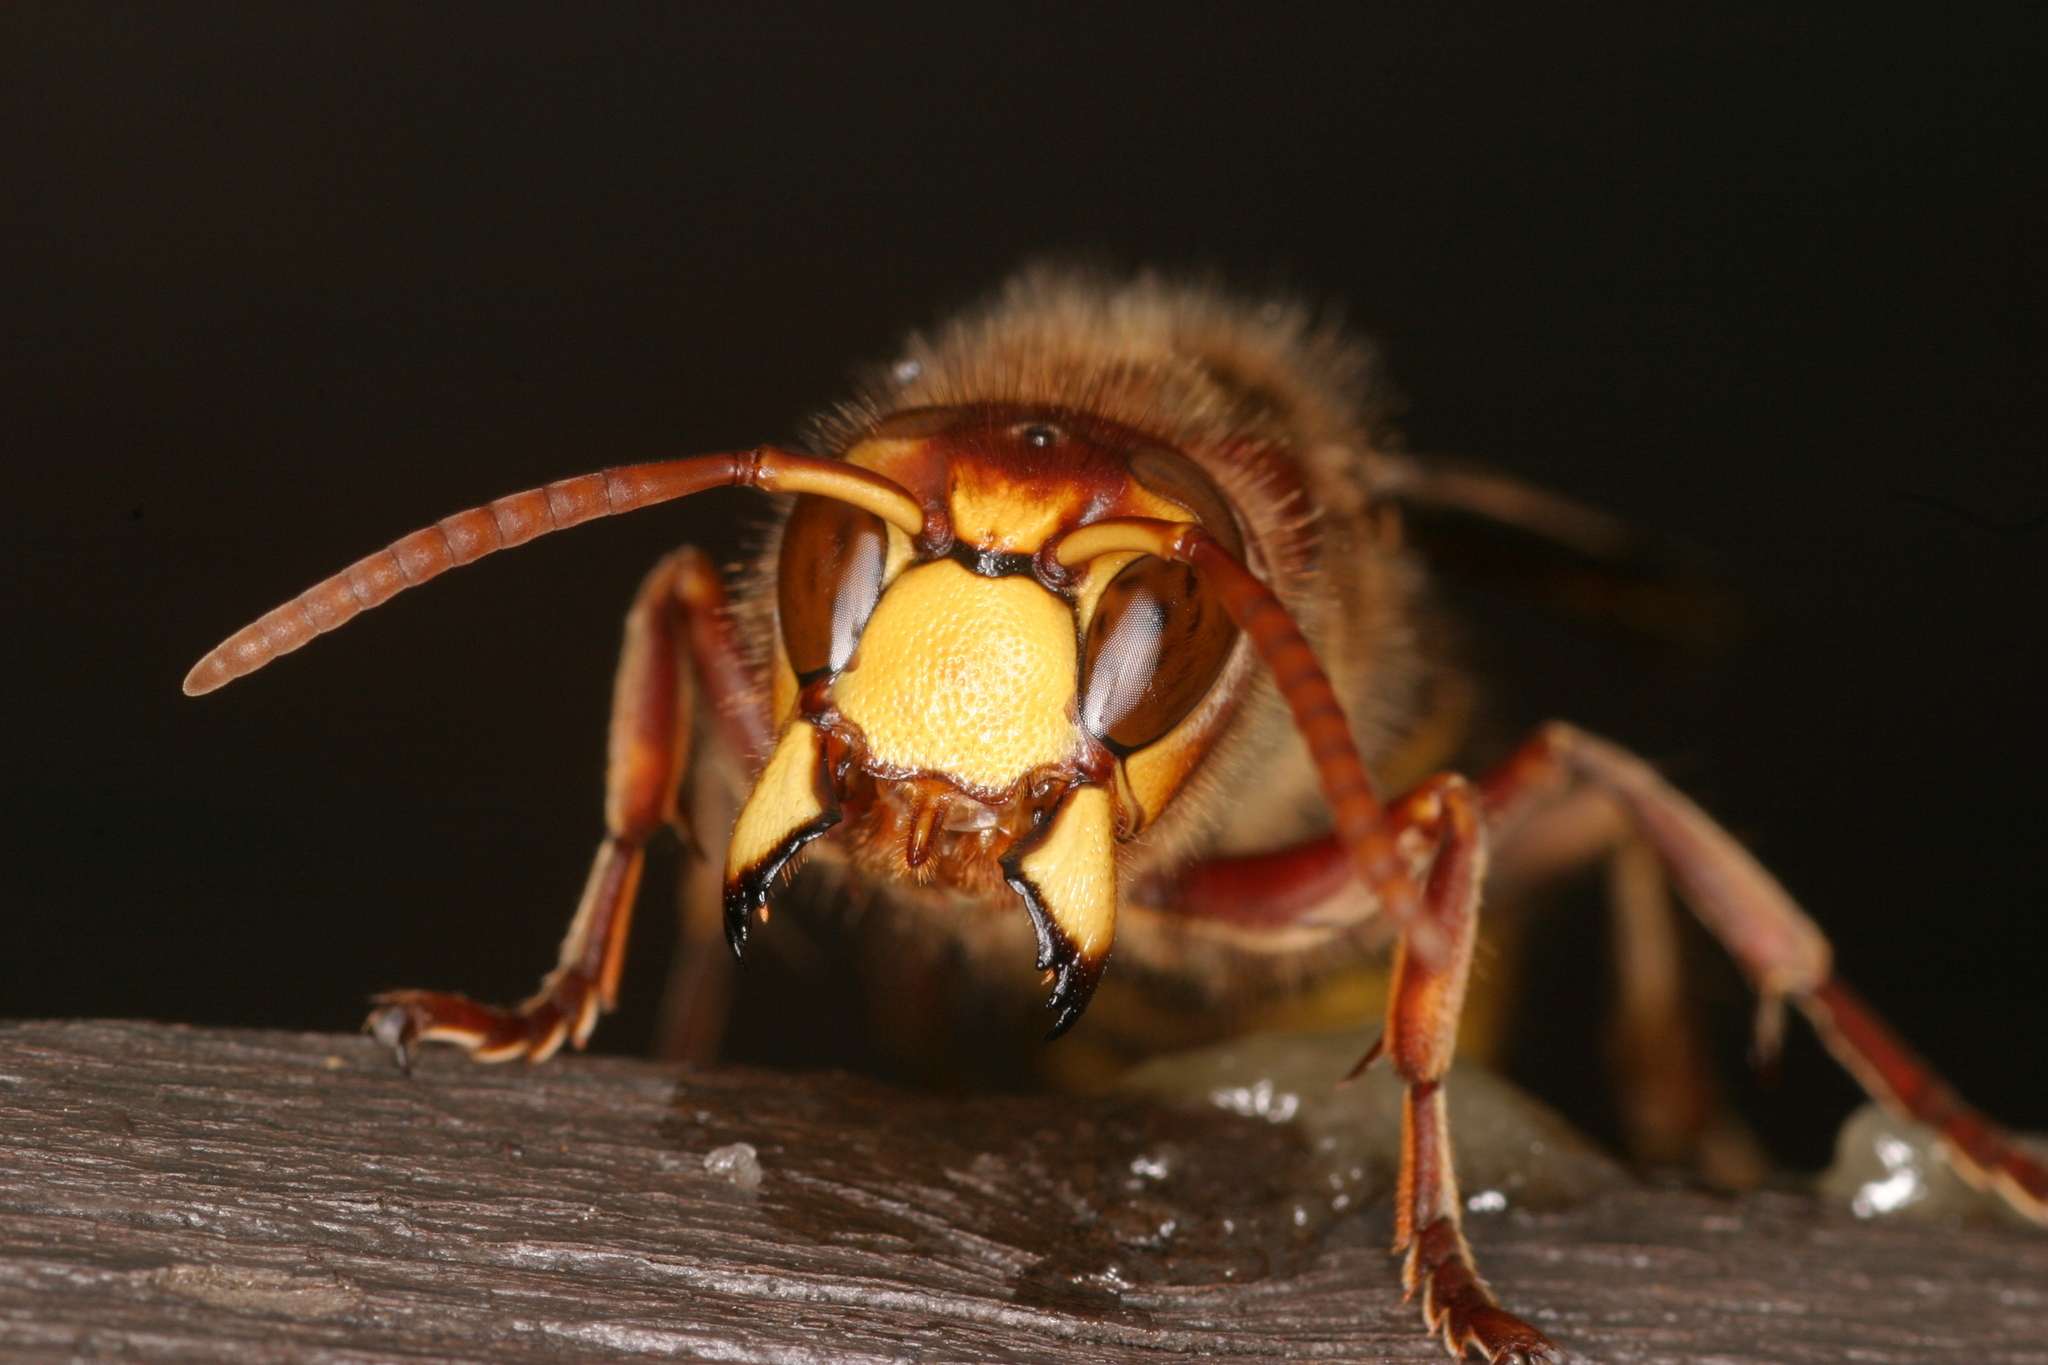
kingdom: Animalia
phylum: Arthropoda
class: Insecta
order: Hymenoptera
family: Vespidae
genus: Vespa
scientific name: Vespa crabro
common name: Hornet
